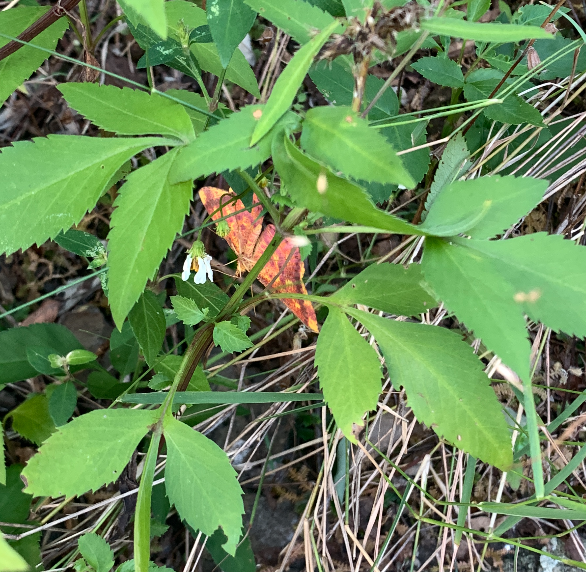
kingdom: Animalia
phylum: Arthropoda
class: Insecta
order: Lepidoptera
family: Geometridae
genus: Eumelea
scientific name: Eumelea ludovicata
